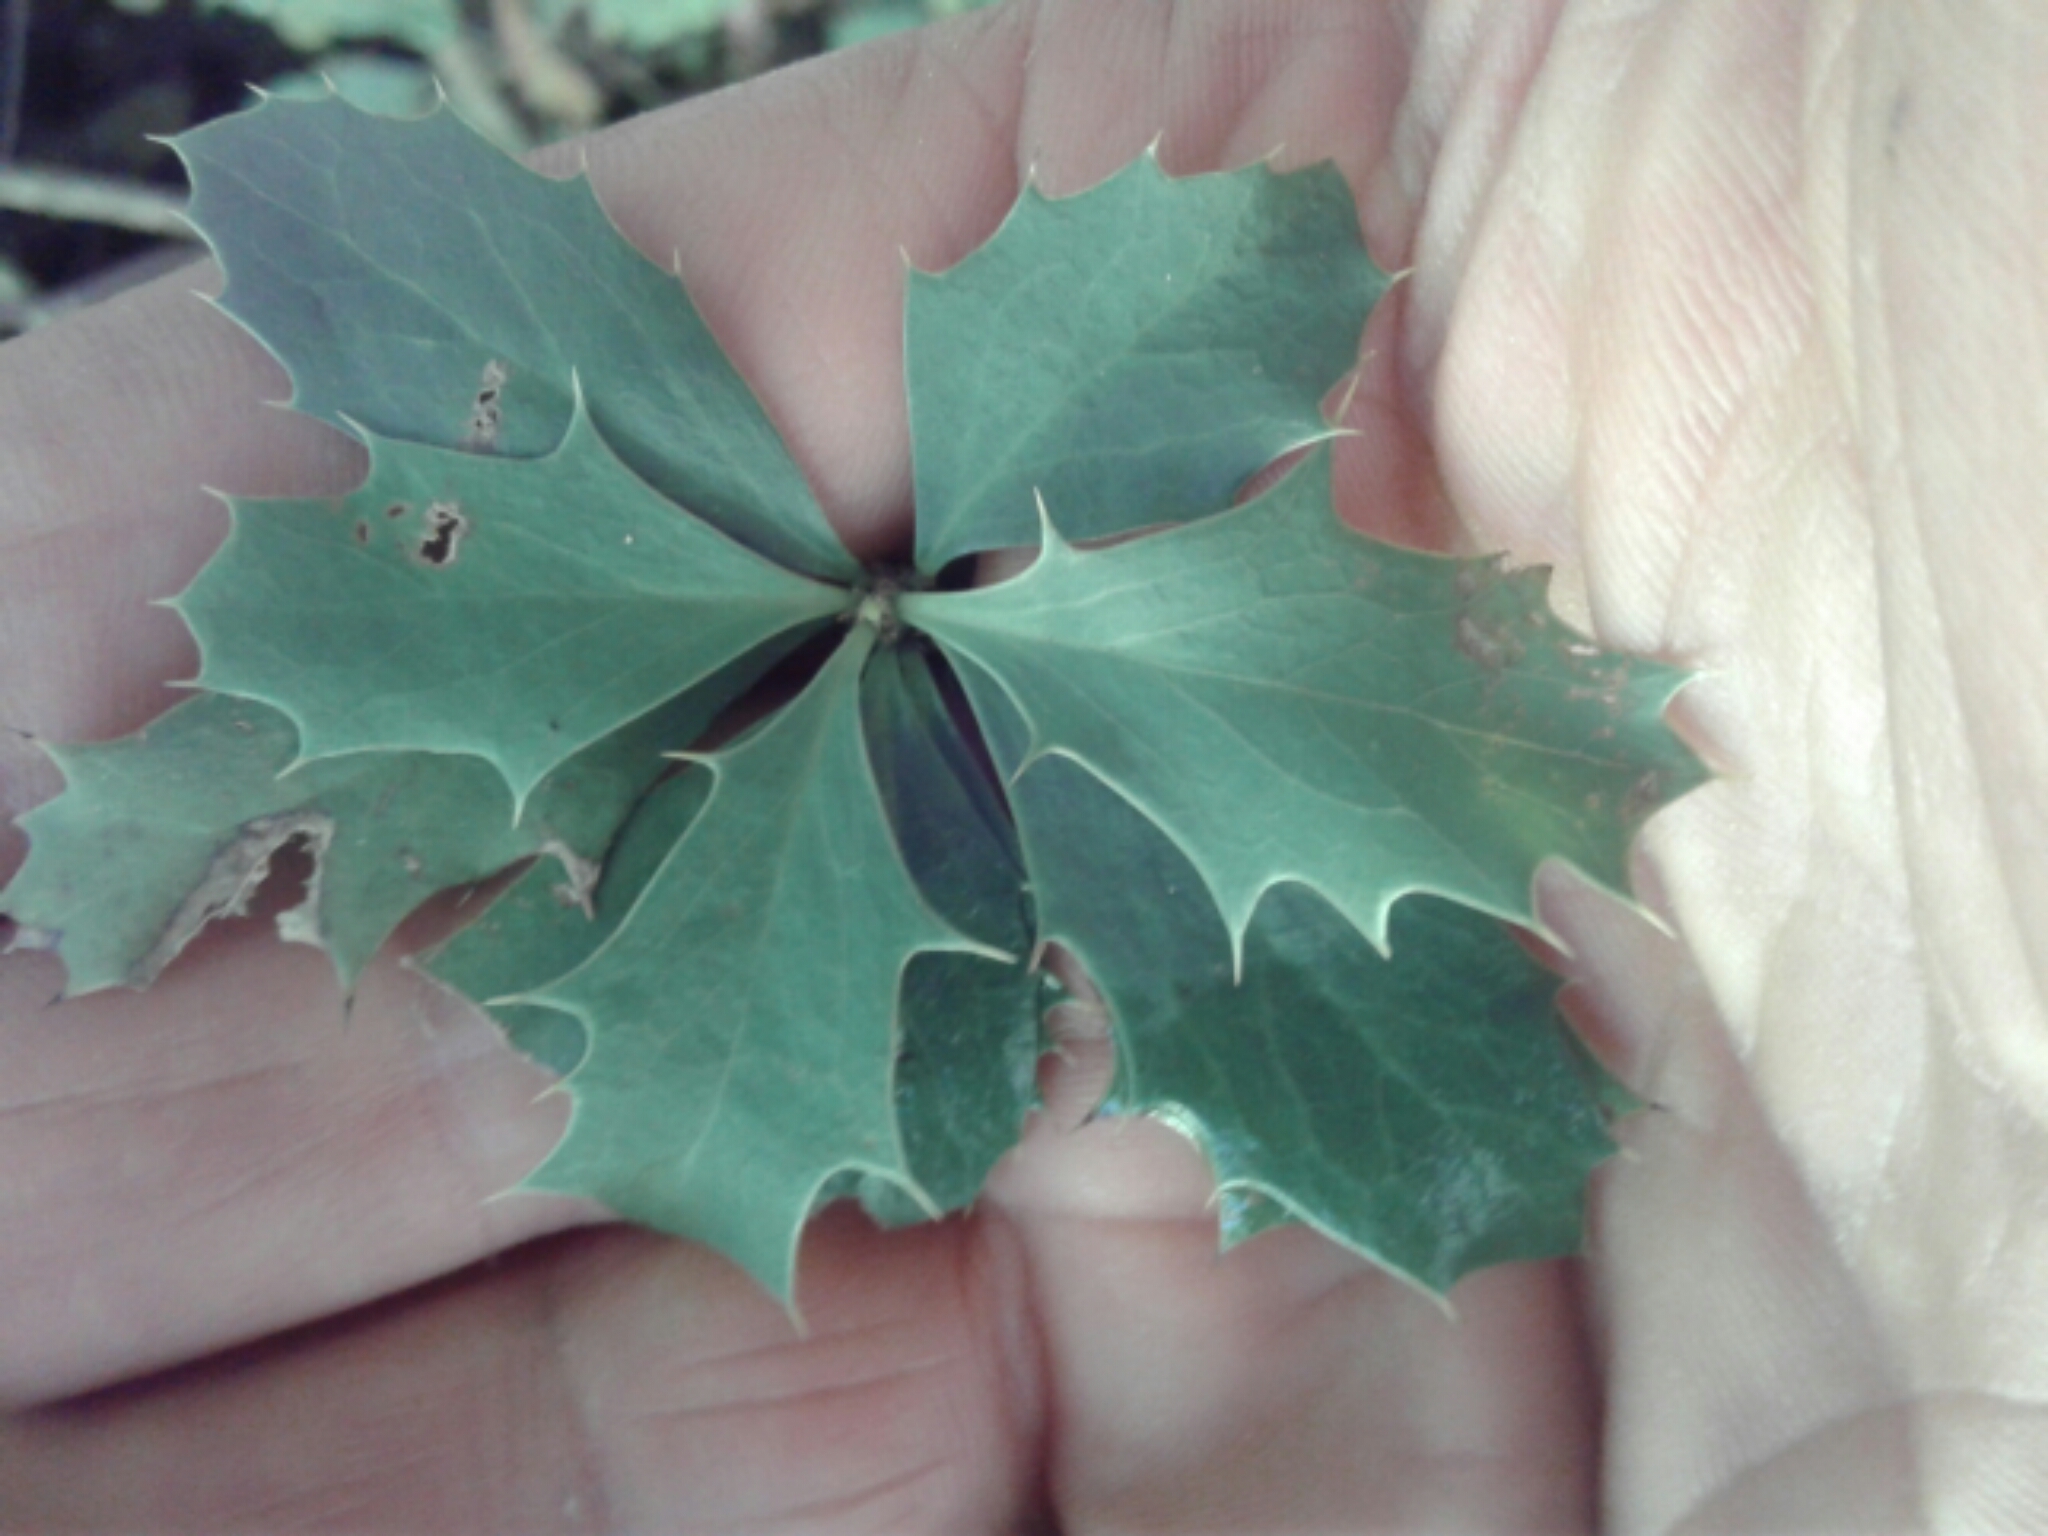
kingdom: Plantae
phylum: Tracheophyta
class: Magnoliopsida
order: Ranunculales
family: Berberidaceae
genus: Berberis
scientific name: Berberis glaucocarpa
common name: Great barberry
